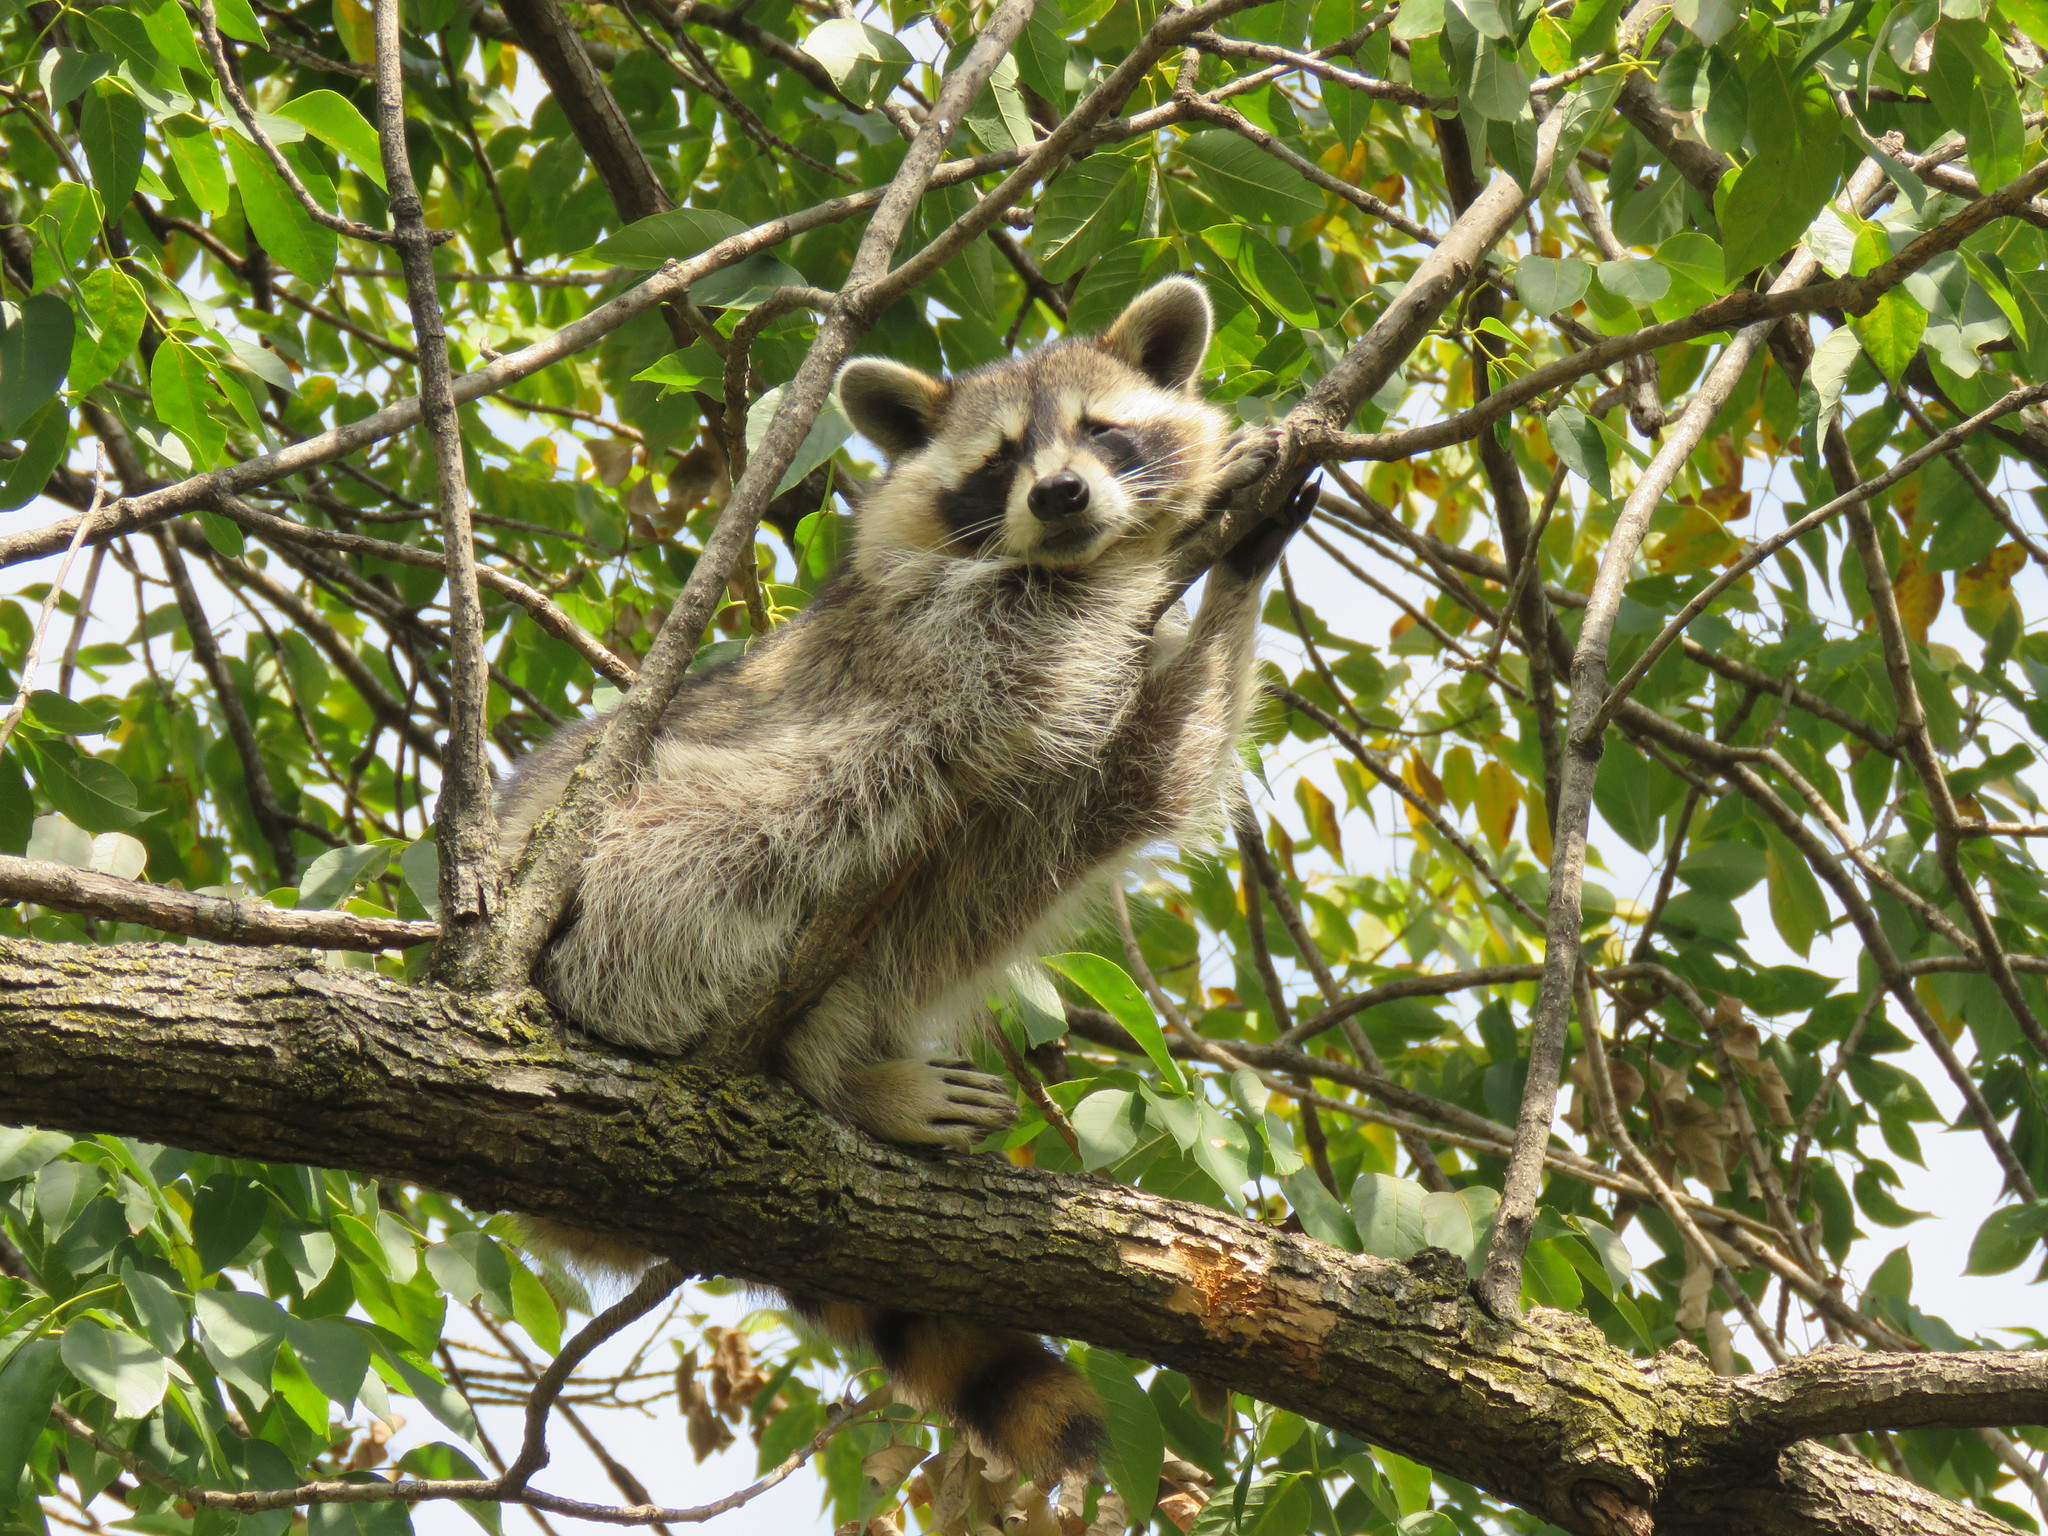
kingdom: Animalia
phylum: Chordata
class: Mammalia
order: Carnivora
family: Procyonidae
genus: Procyon
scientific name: Procyon lotor
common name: Raccoon
